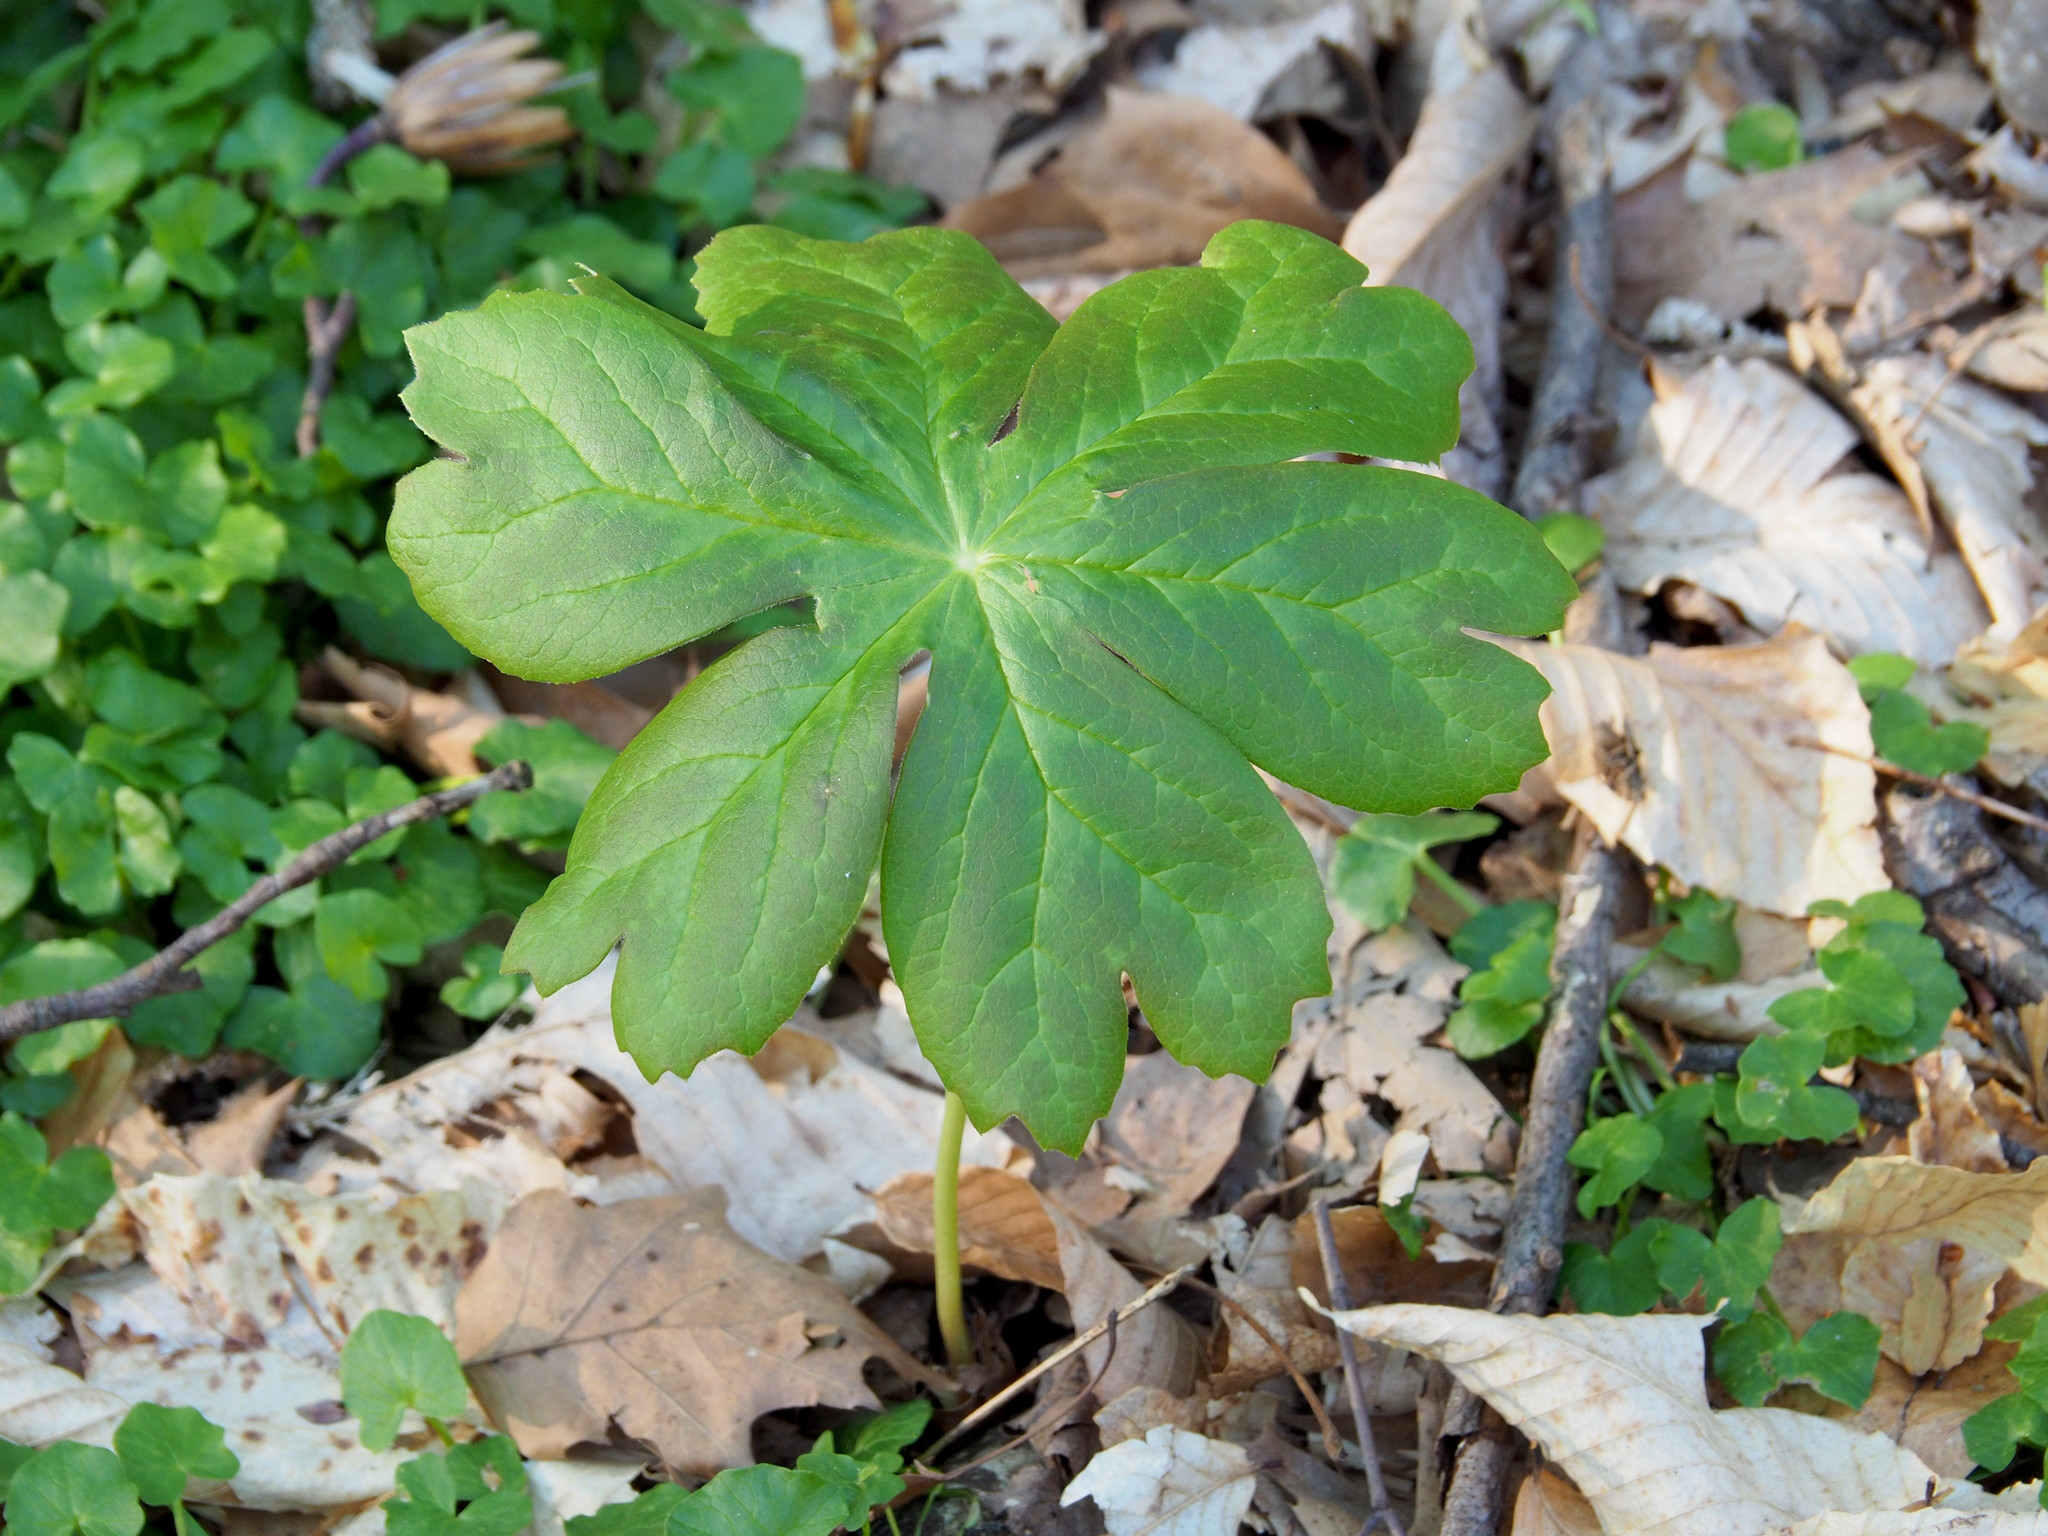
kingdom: Plantae
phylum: Tracheophyta
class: Magnoliopsida
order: Ranunculales
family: Berberidaceae
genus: Podophyllum
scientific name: Podophyllum peltatum
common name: Wild mandrake
